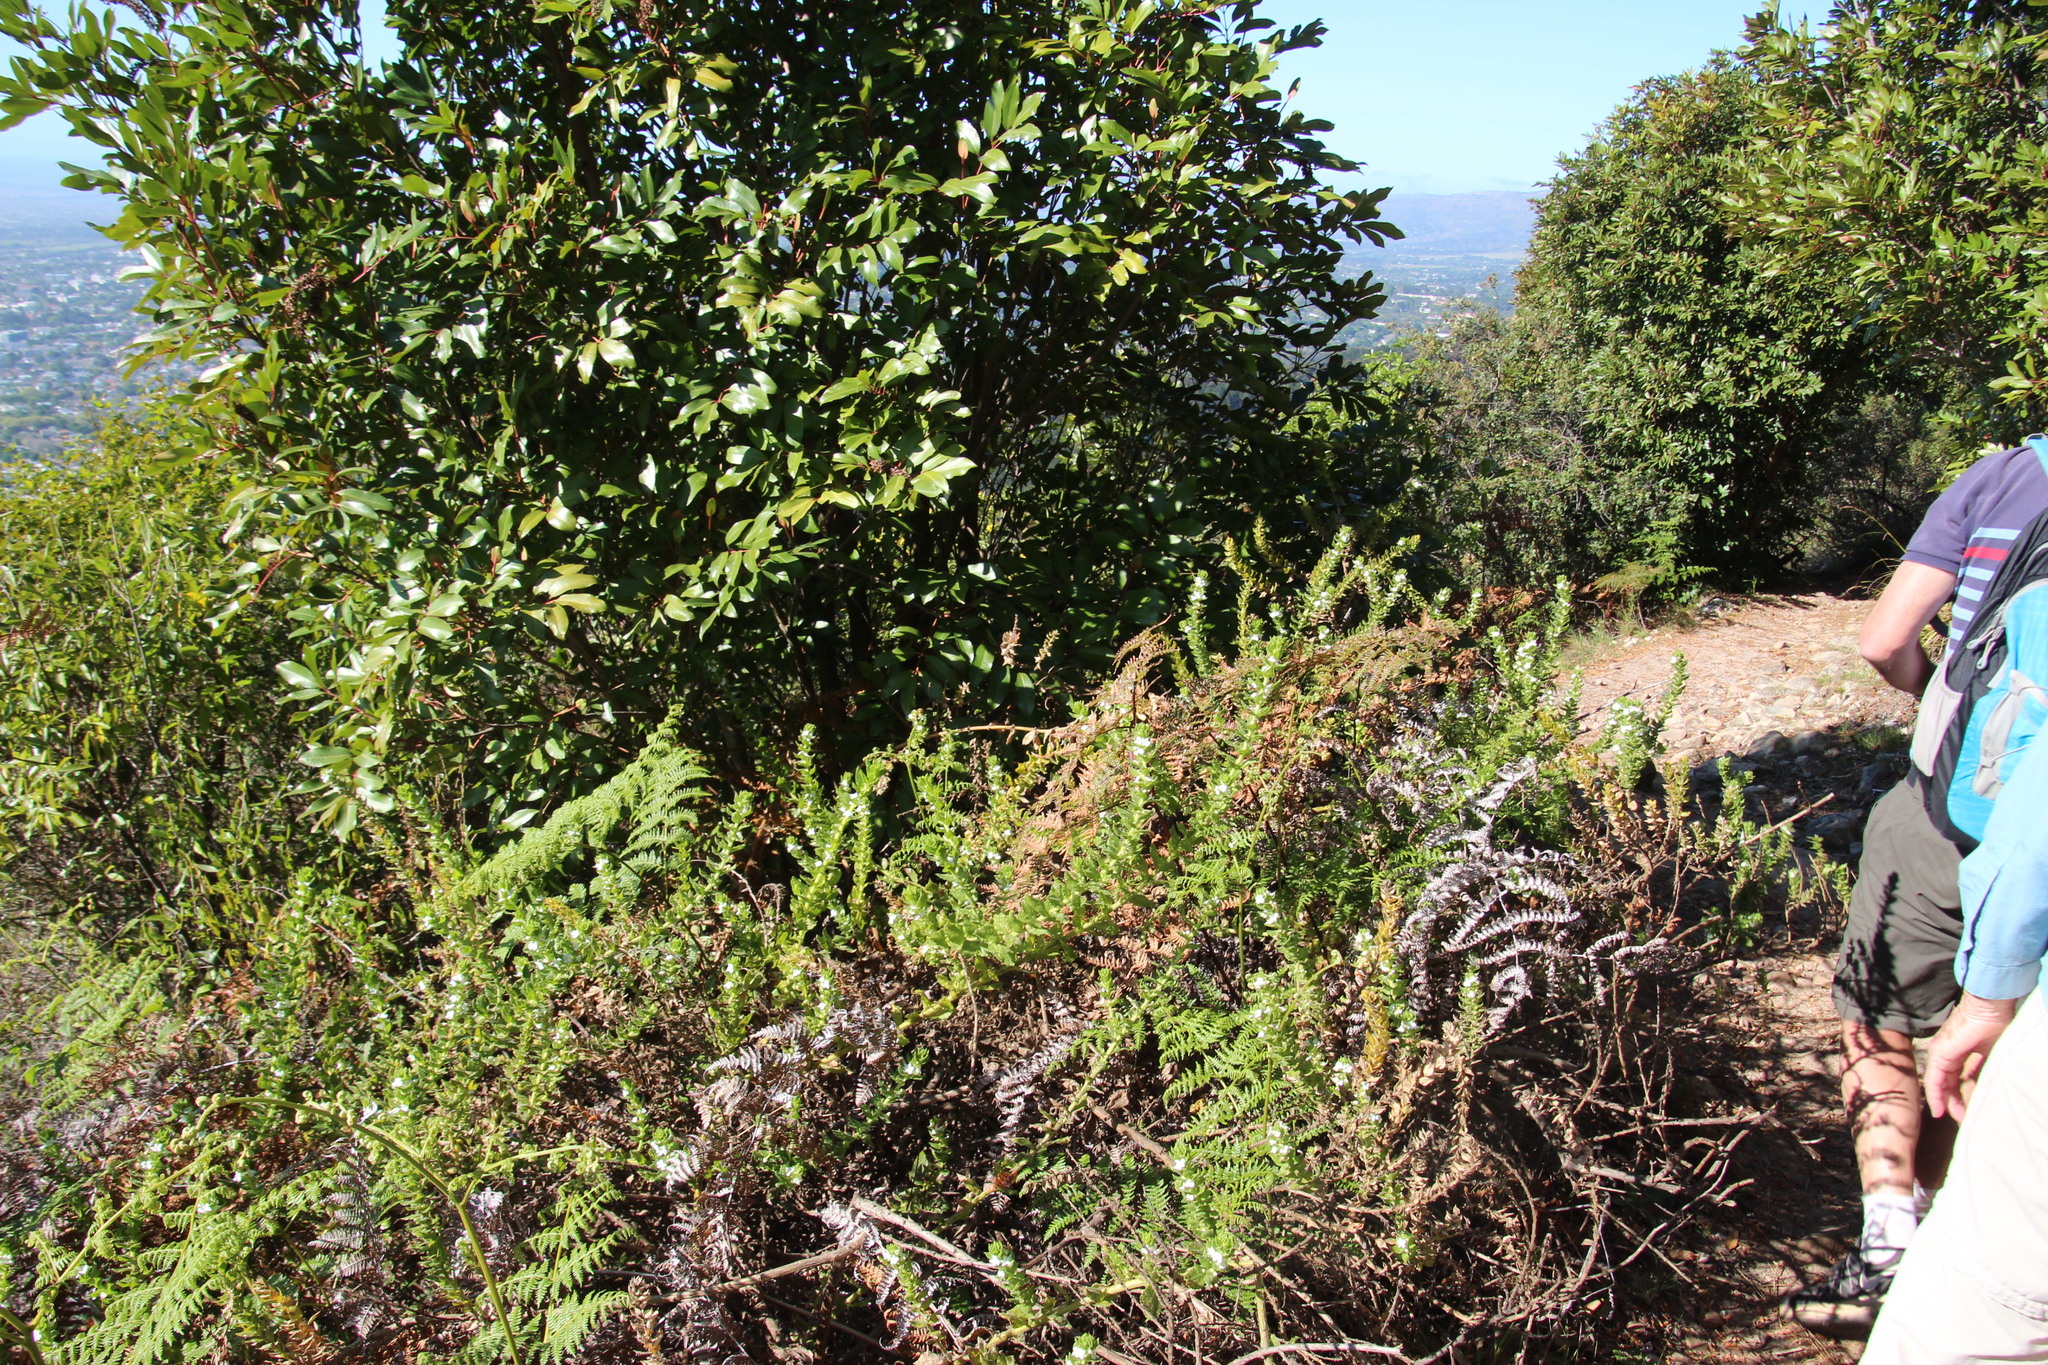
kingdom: Plantae
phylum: Tracheophyta
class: Magnoliopsida
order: Lamiales
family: Scrophulariaceae
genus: Oftia
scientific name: Oftia africana
